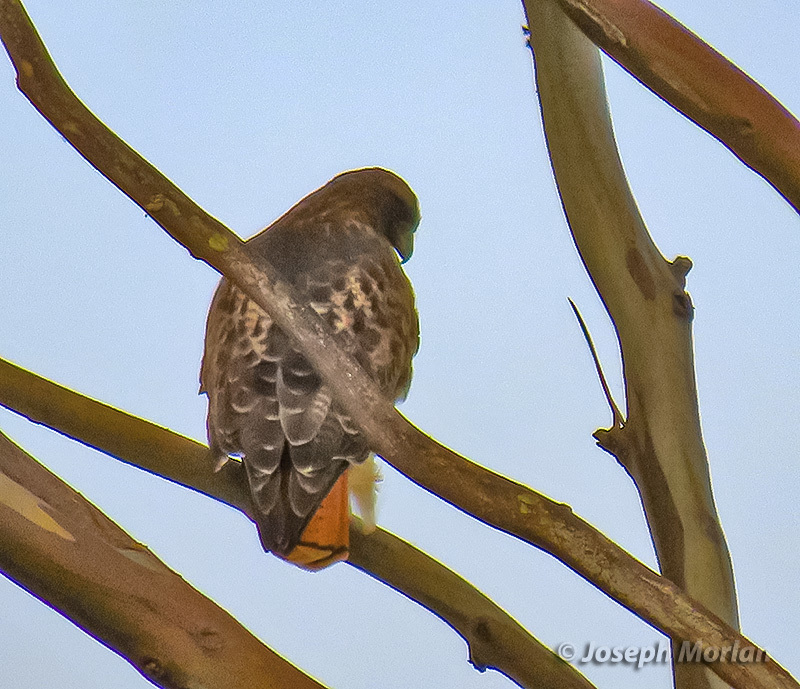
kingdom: Animalia
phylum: Chordata
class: Aves
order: Accipitriformes
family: Accipitridae
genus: Buteo
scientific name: Buteo jamaicensis
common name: Red-tailed hawk
